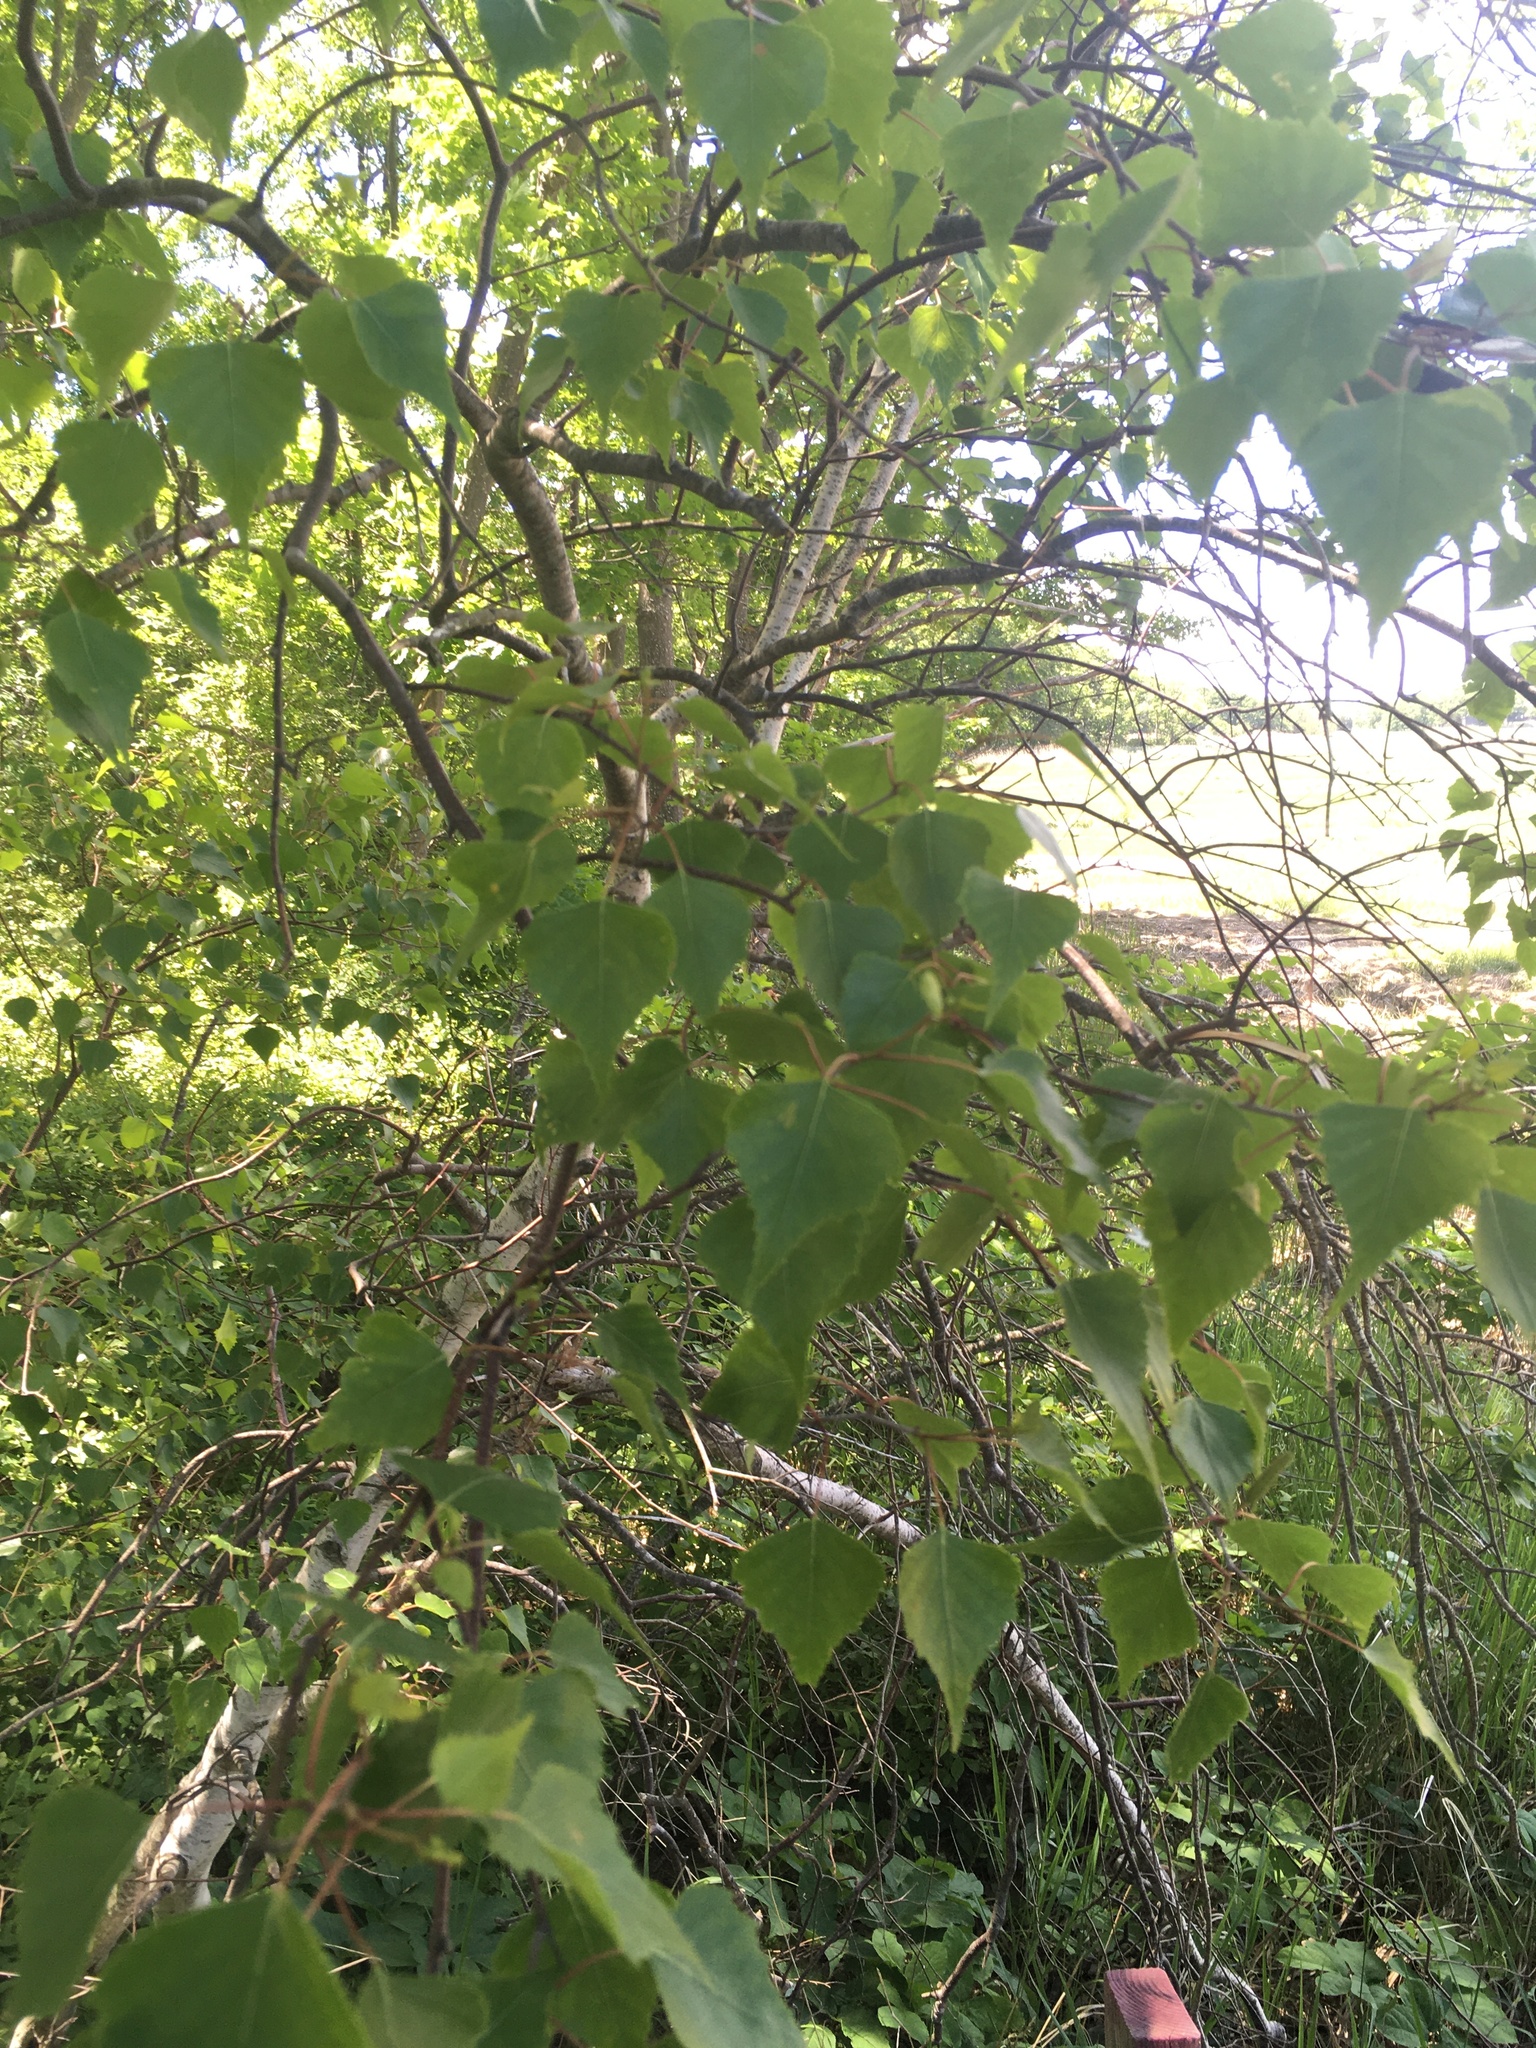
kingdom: Plantae
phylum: Tracheophyta
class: Magnoliopsida
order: Fagales
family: Betulaceae
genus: Betula
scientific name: Betula populifolia
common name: Fire birch
